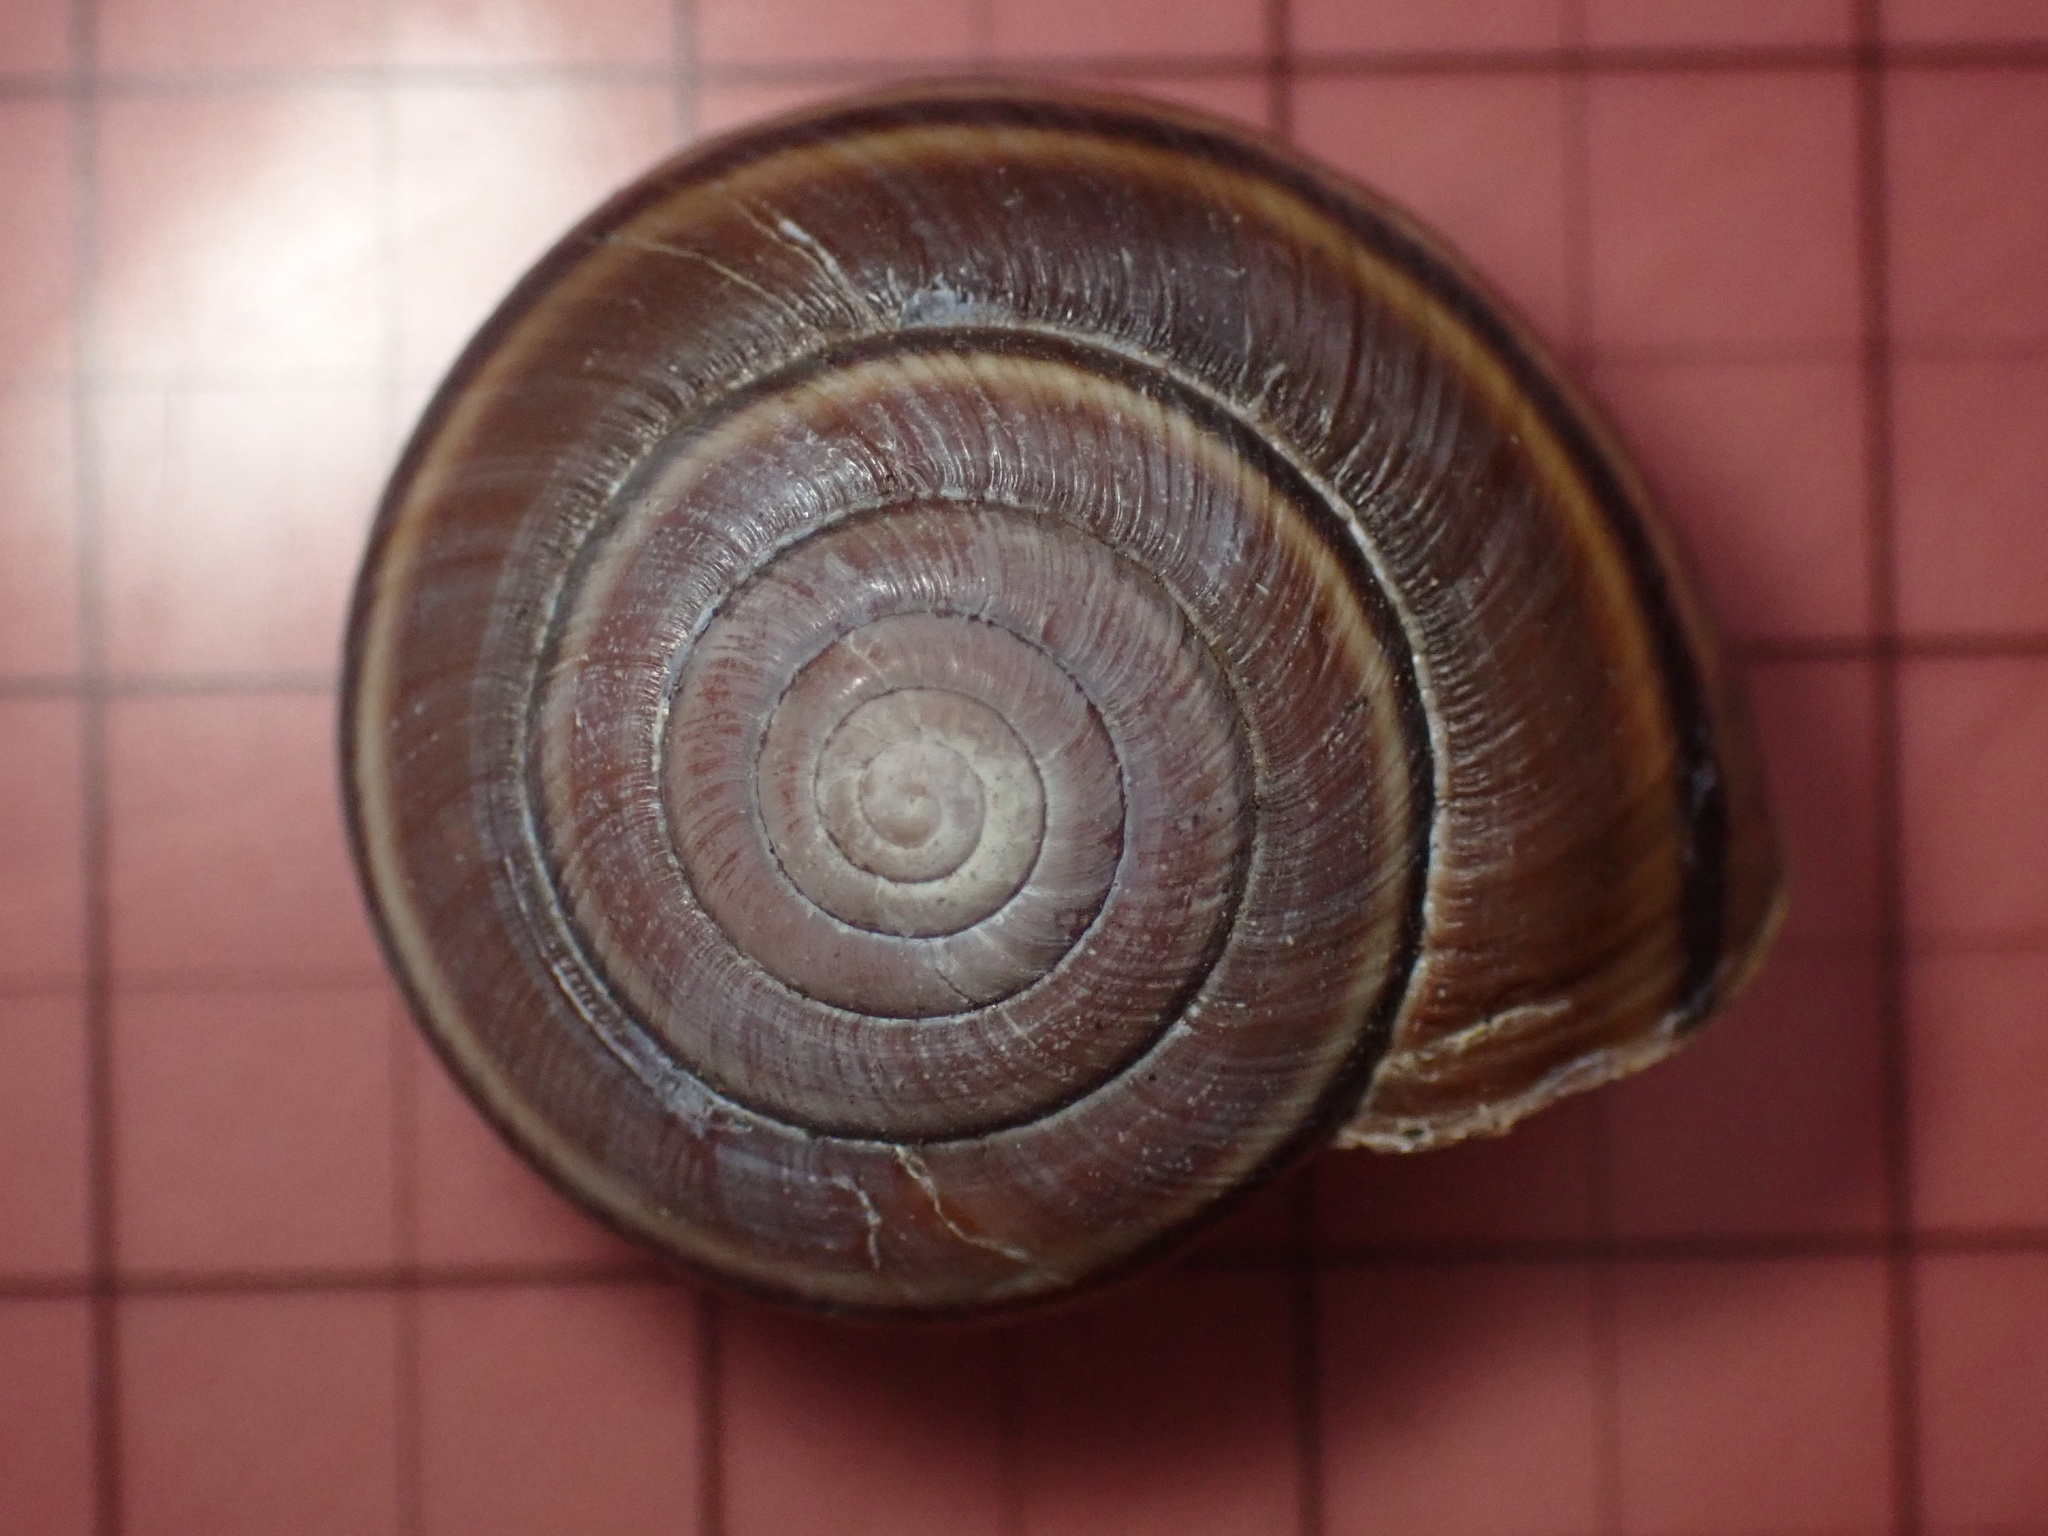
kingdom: Animalia
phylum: Mollusca
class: Gastropoda
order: Stylommatophora
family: Xanthonychidae
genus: Helminthoglypta
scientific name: Helminthoglypta dupetithouarsi
